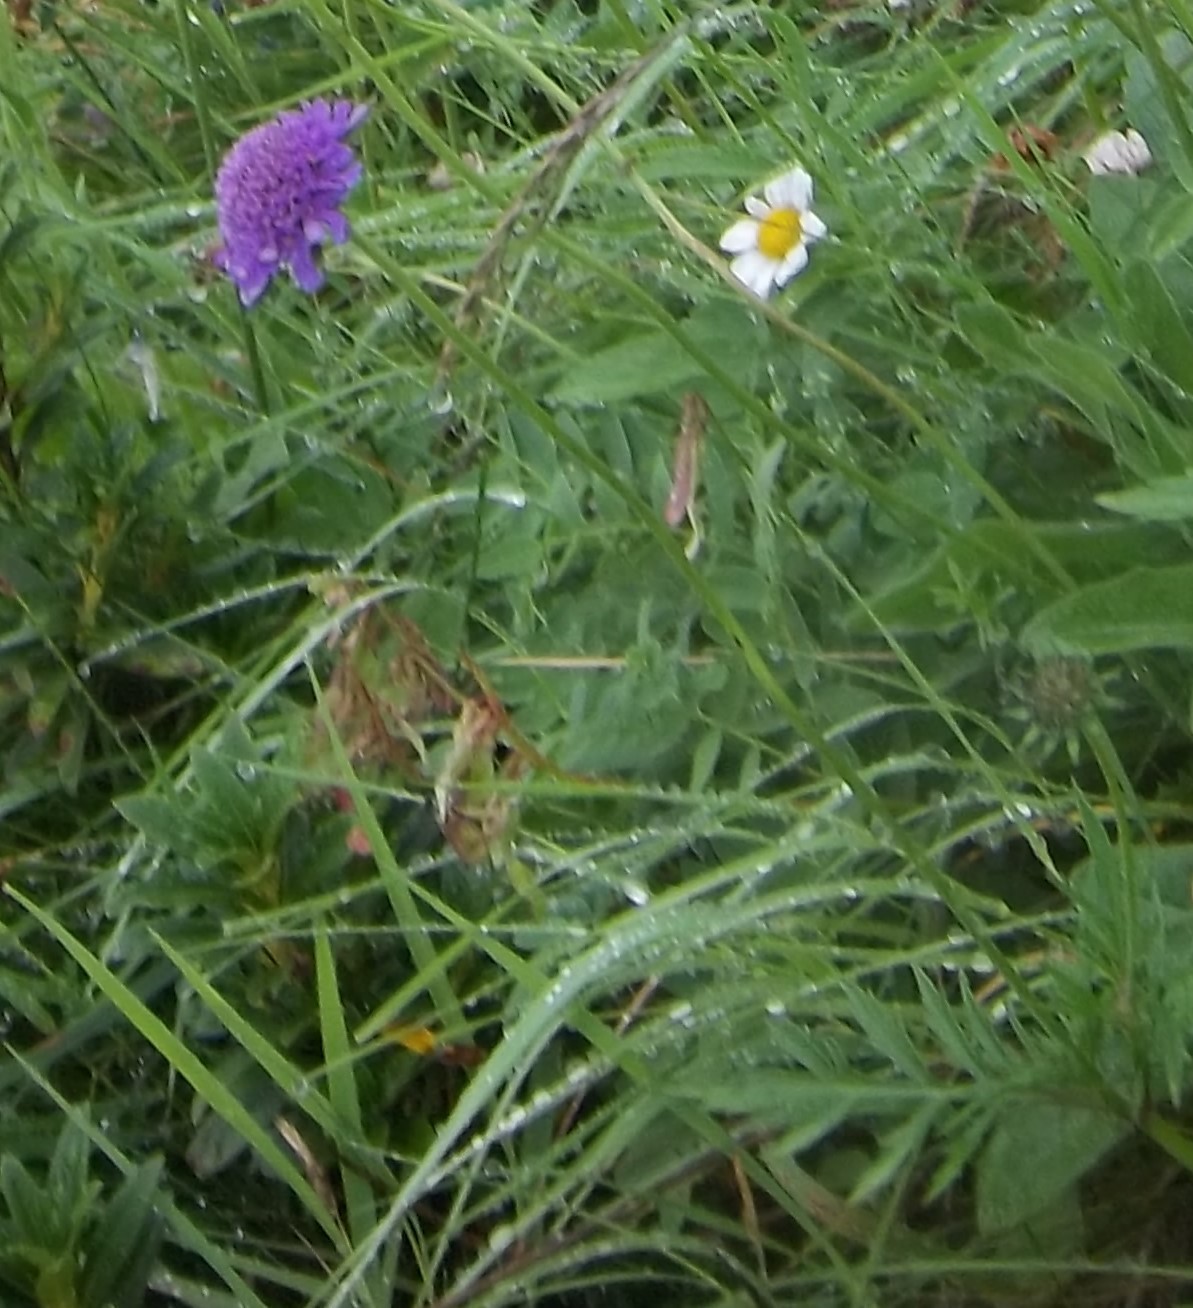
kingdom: Plantae
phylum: Tracheophyta
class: Magnoliopsida
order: Dipsacales
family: Caprifoliaceae
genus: Knautia
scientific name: Knautia arvensis
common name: Field scabiosa
